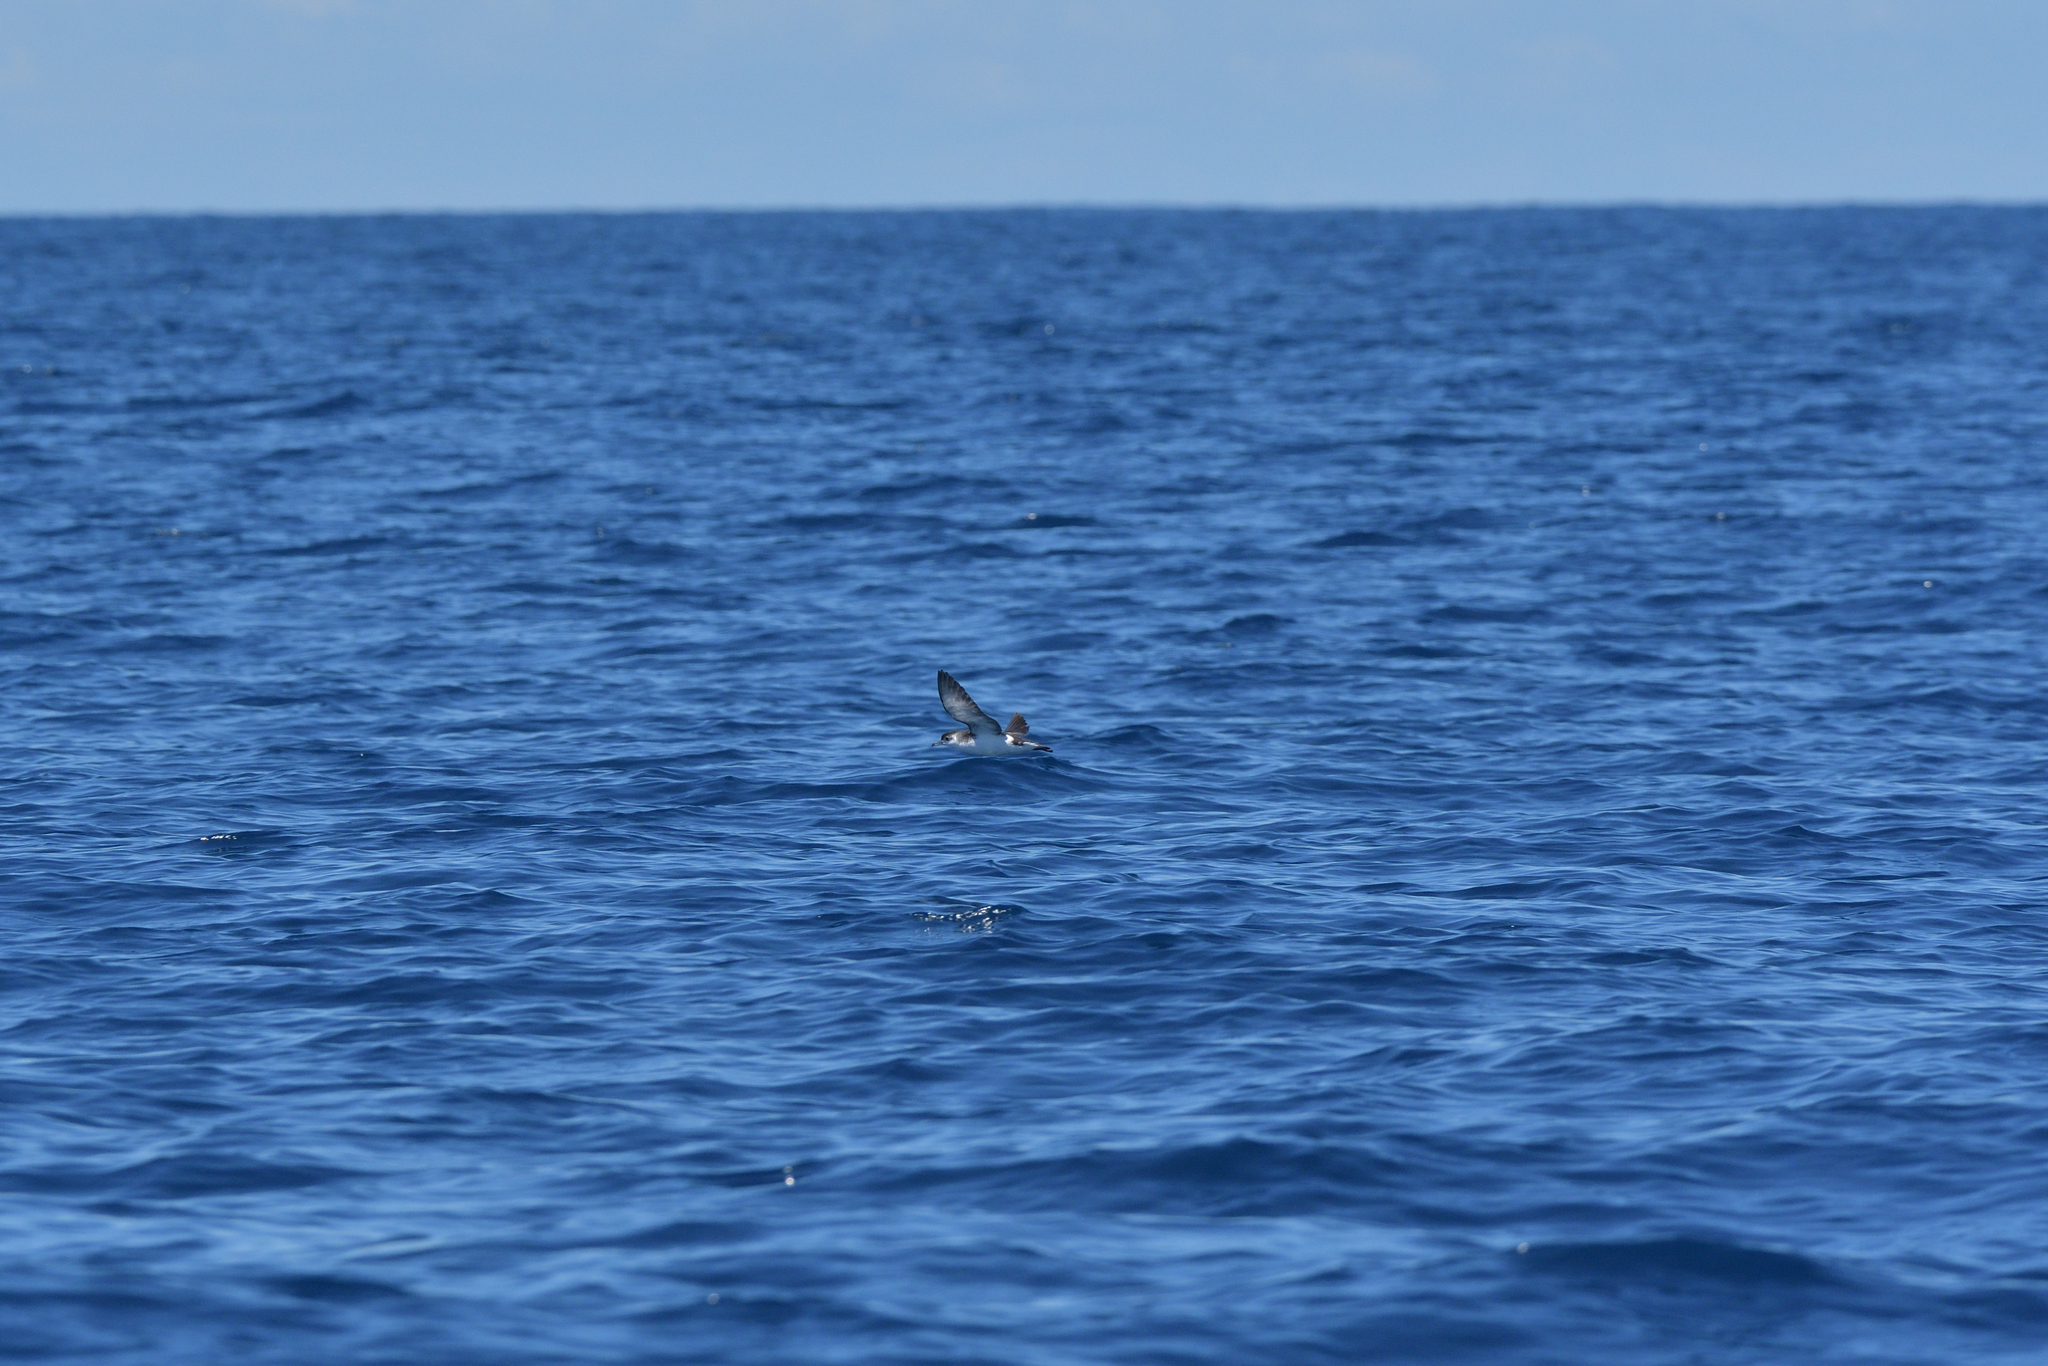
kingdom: Animalia
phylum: Chordata
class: Aves
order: Procellariiformes
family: Procellariidae
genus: Puffinus
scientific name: Puffinus assimilis
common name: Little shearwater
